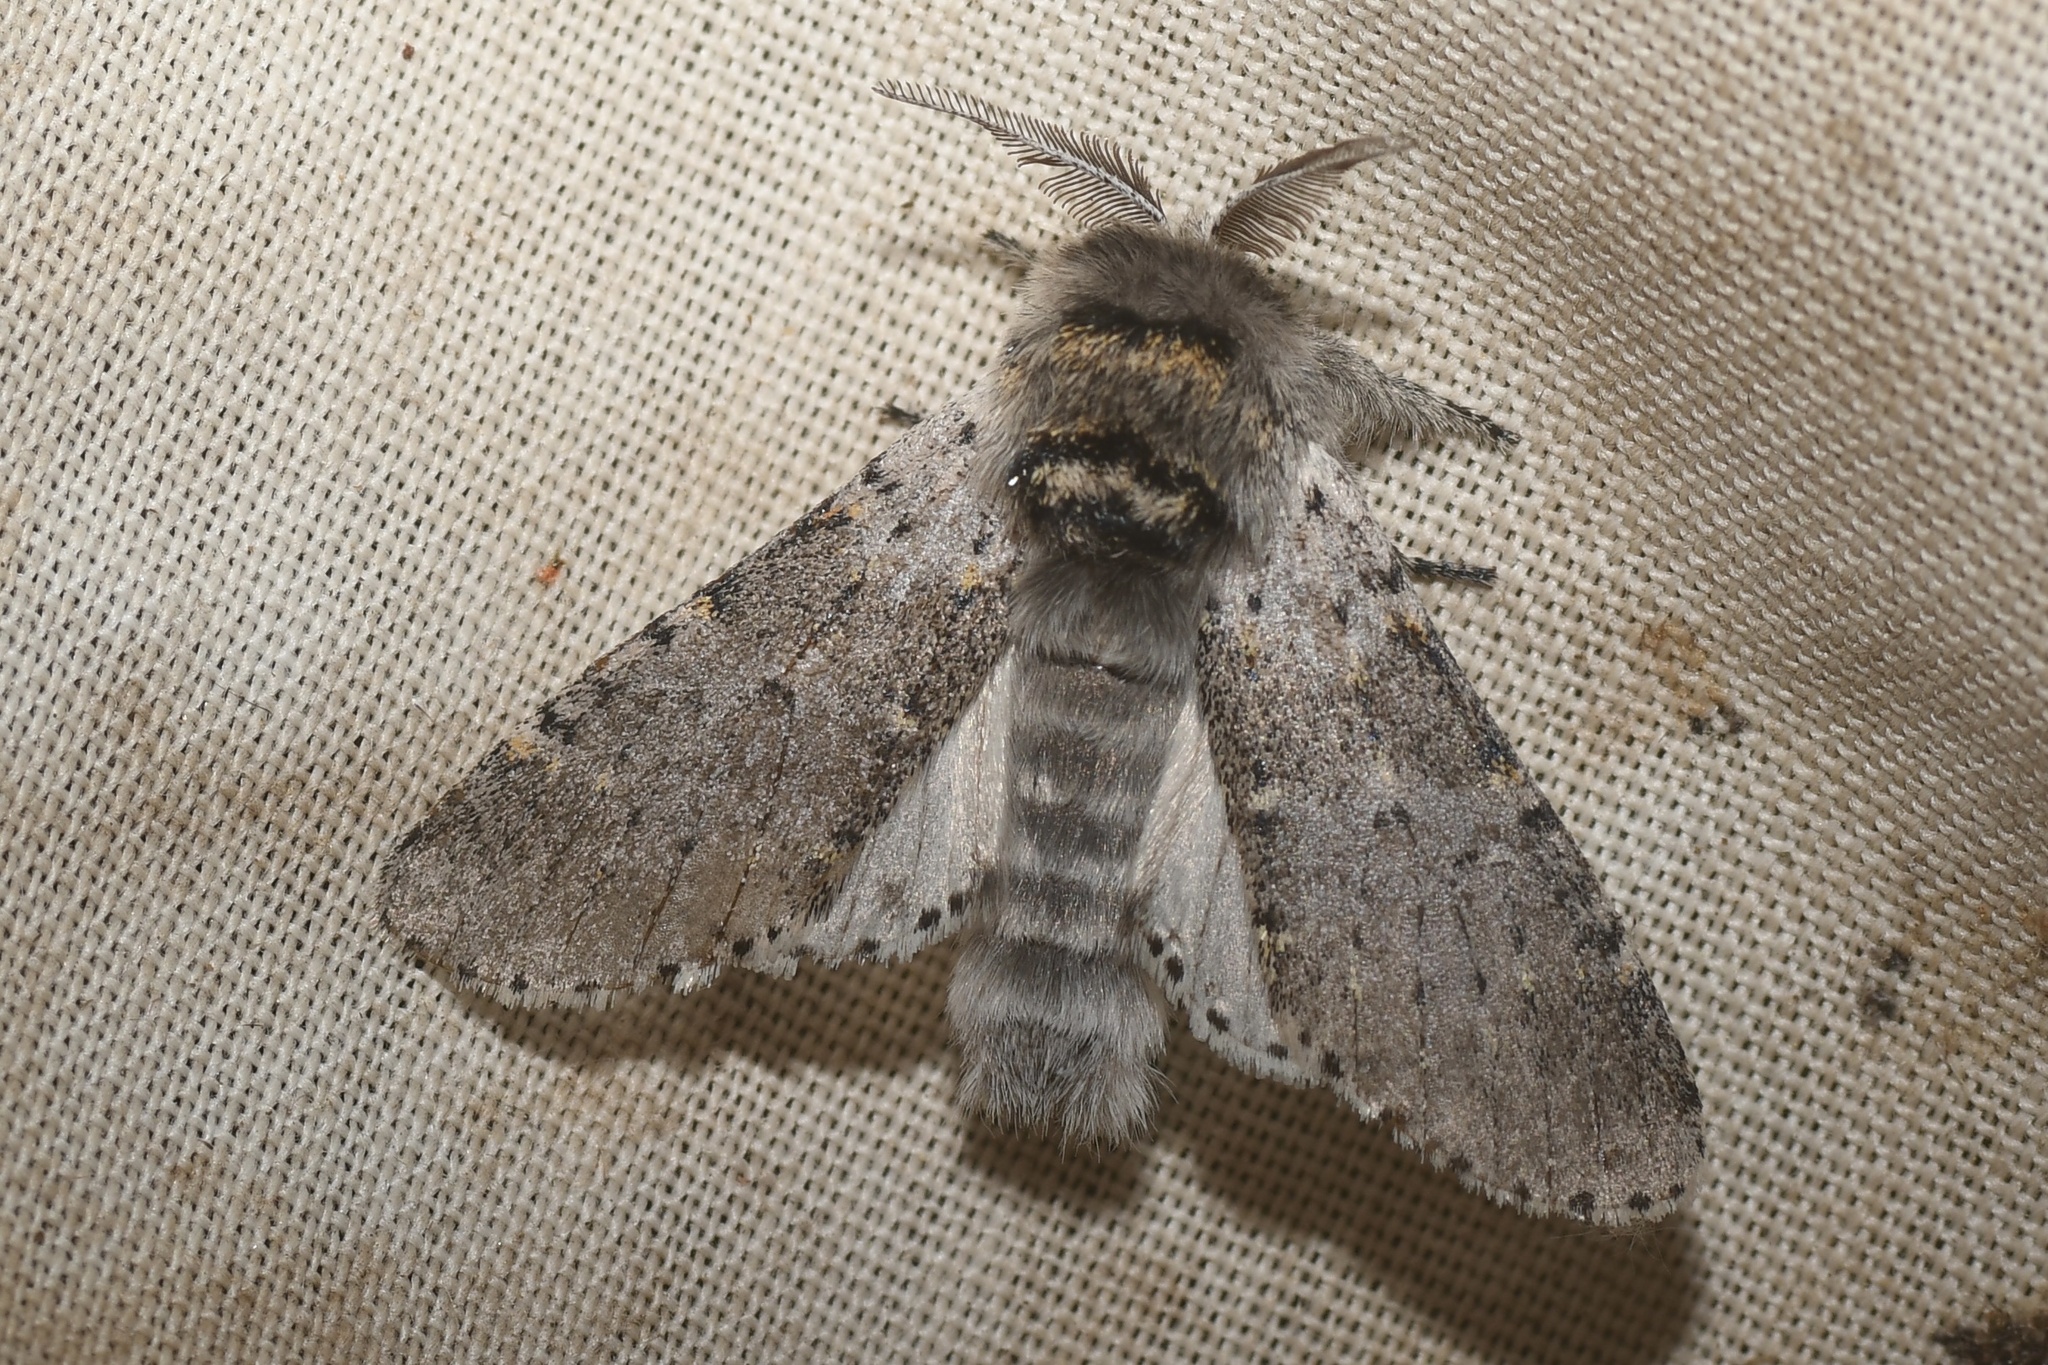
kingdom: Animalia
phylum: Arthropoda
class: Insecta
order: Lepidoptera
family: Notodontidae
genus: Furcula
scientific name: Furcula cinerea
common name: Gray furcula
